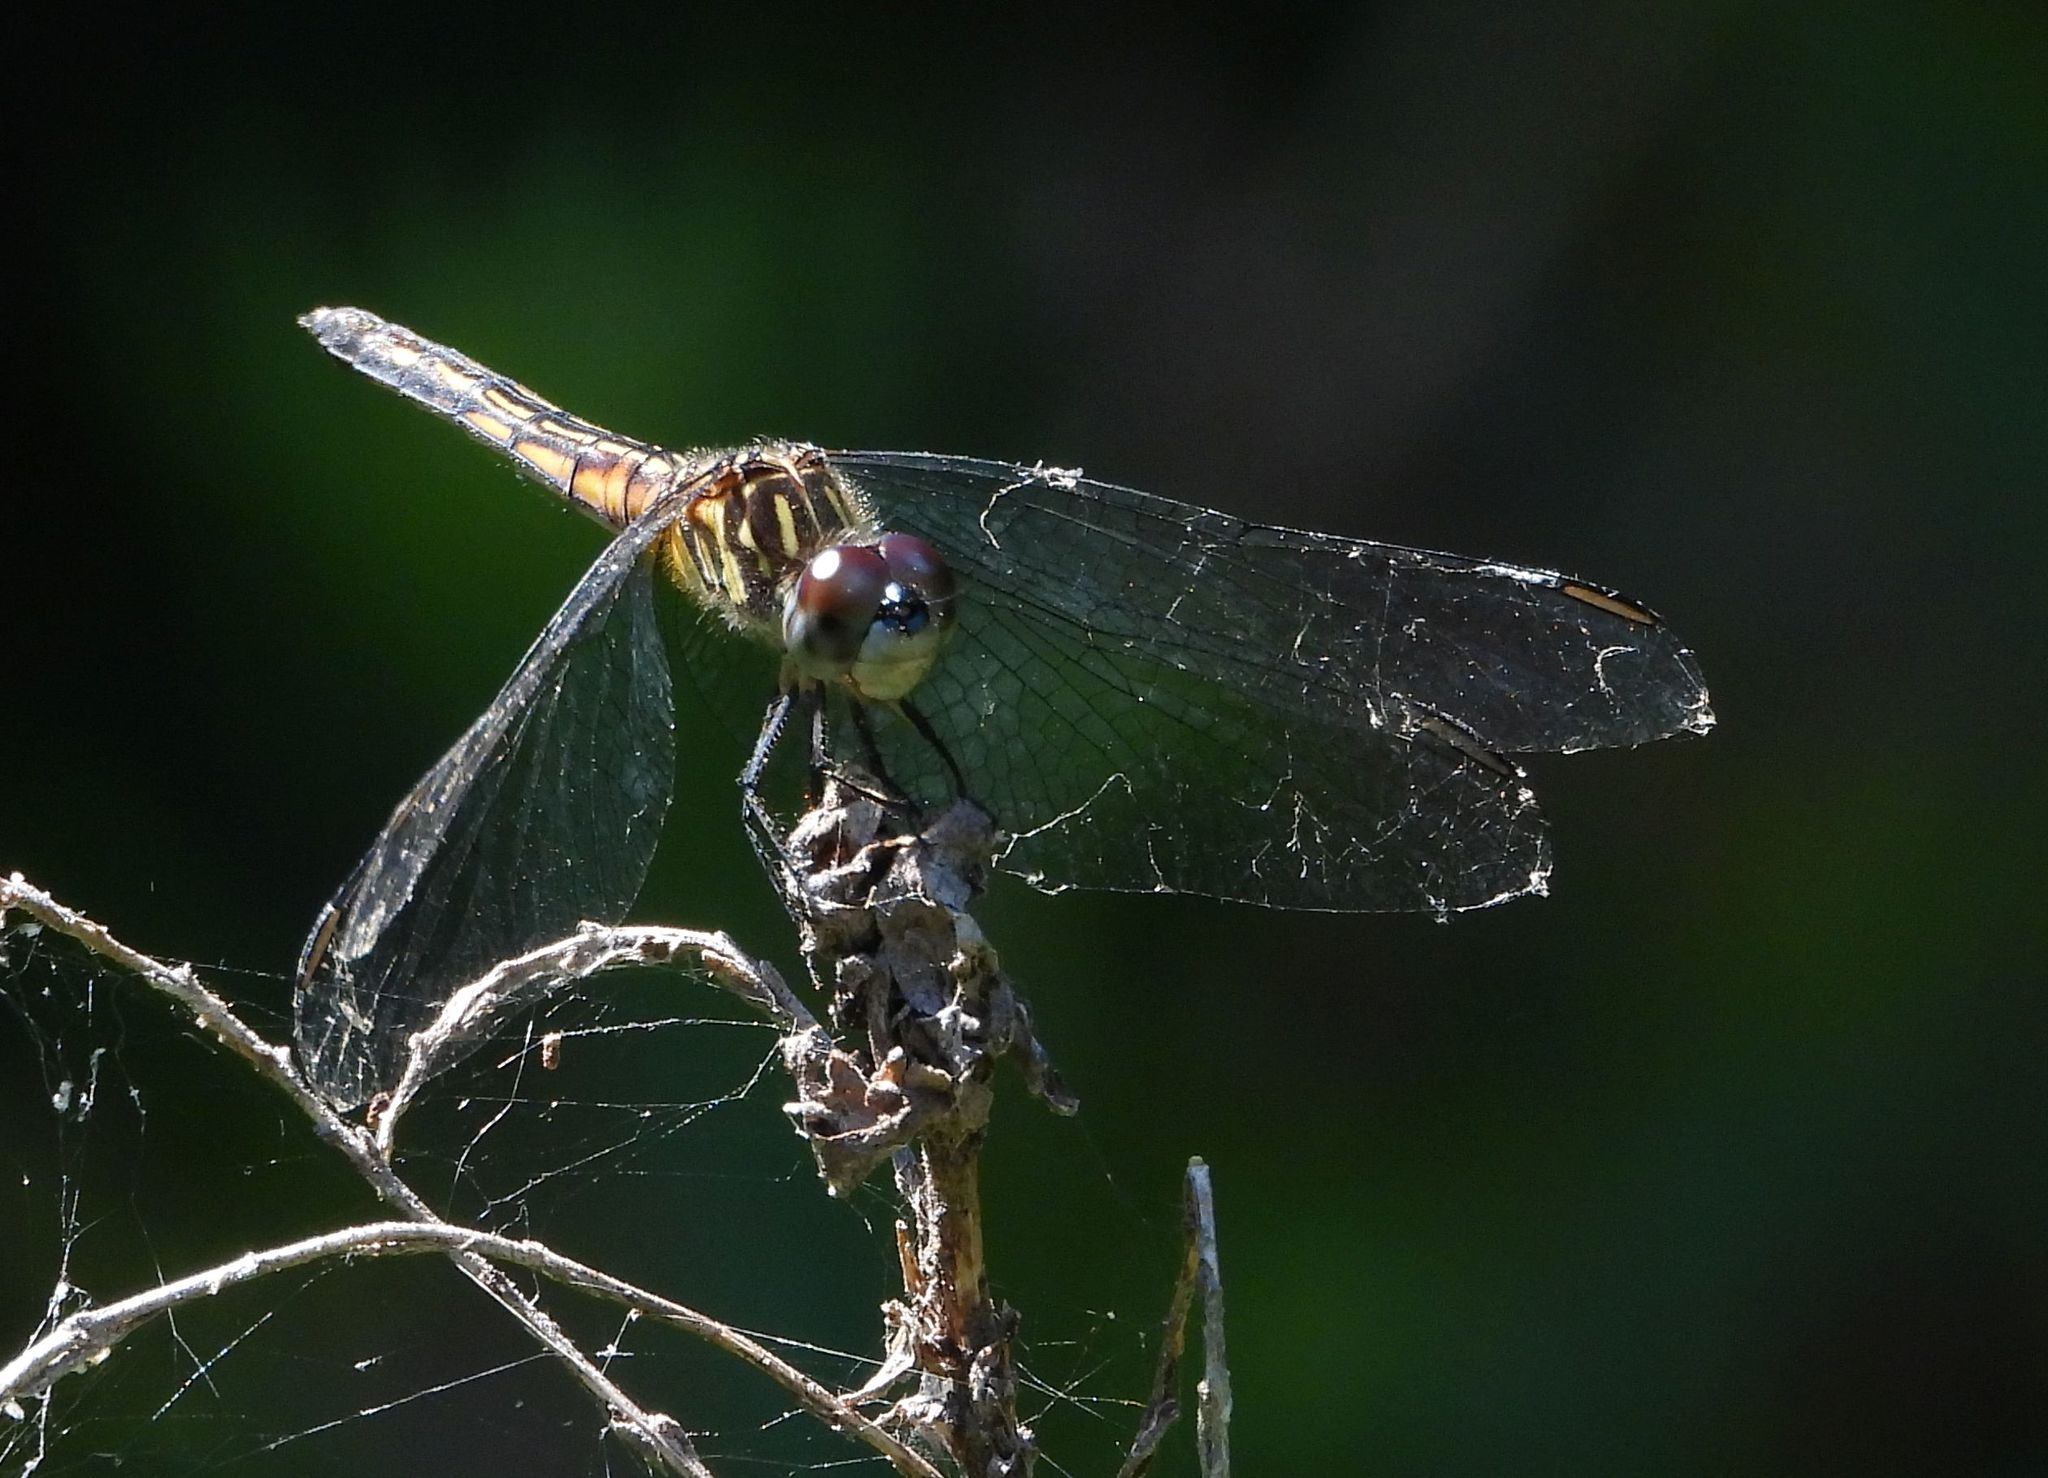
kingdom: Animalia
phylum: Arthropoda
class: Insecta
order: Odonata
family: Libellulidae
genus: Pachydiplax
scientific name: Pachydiplax longipennis
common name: Blue dasher
